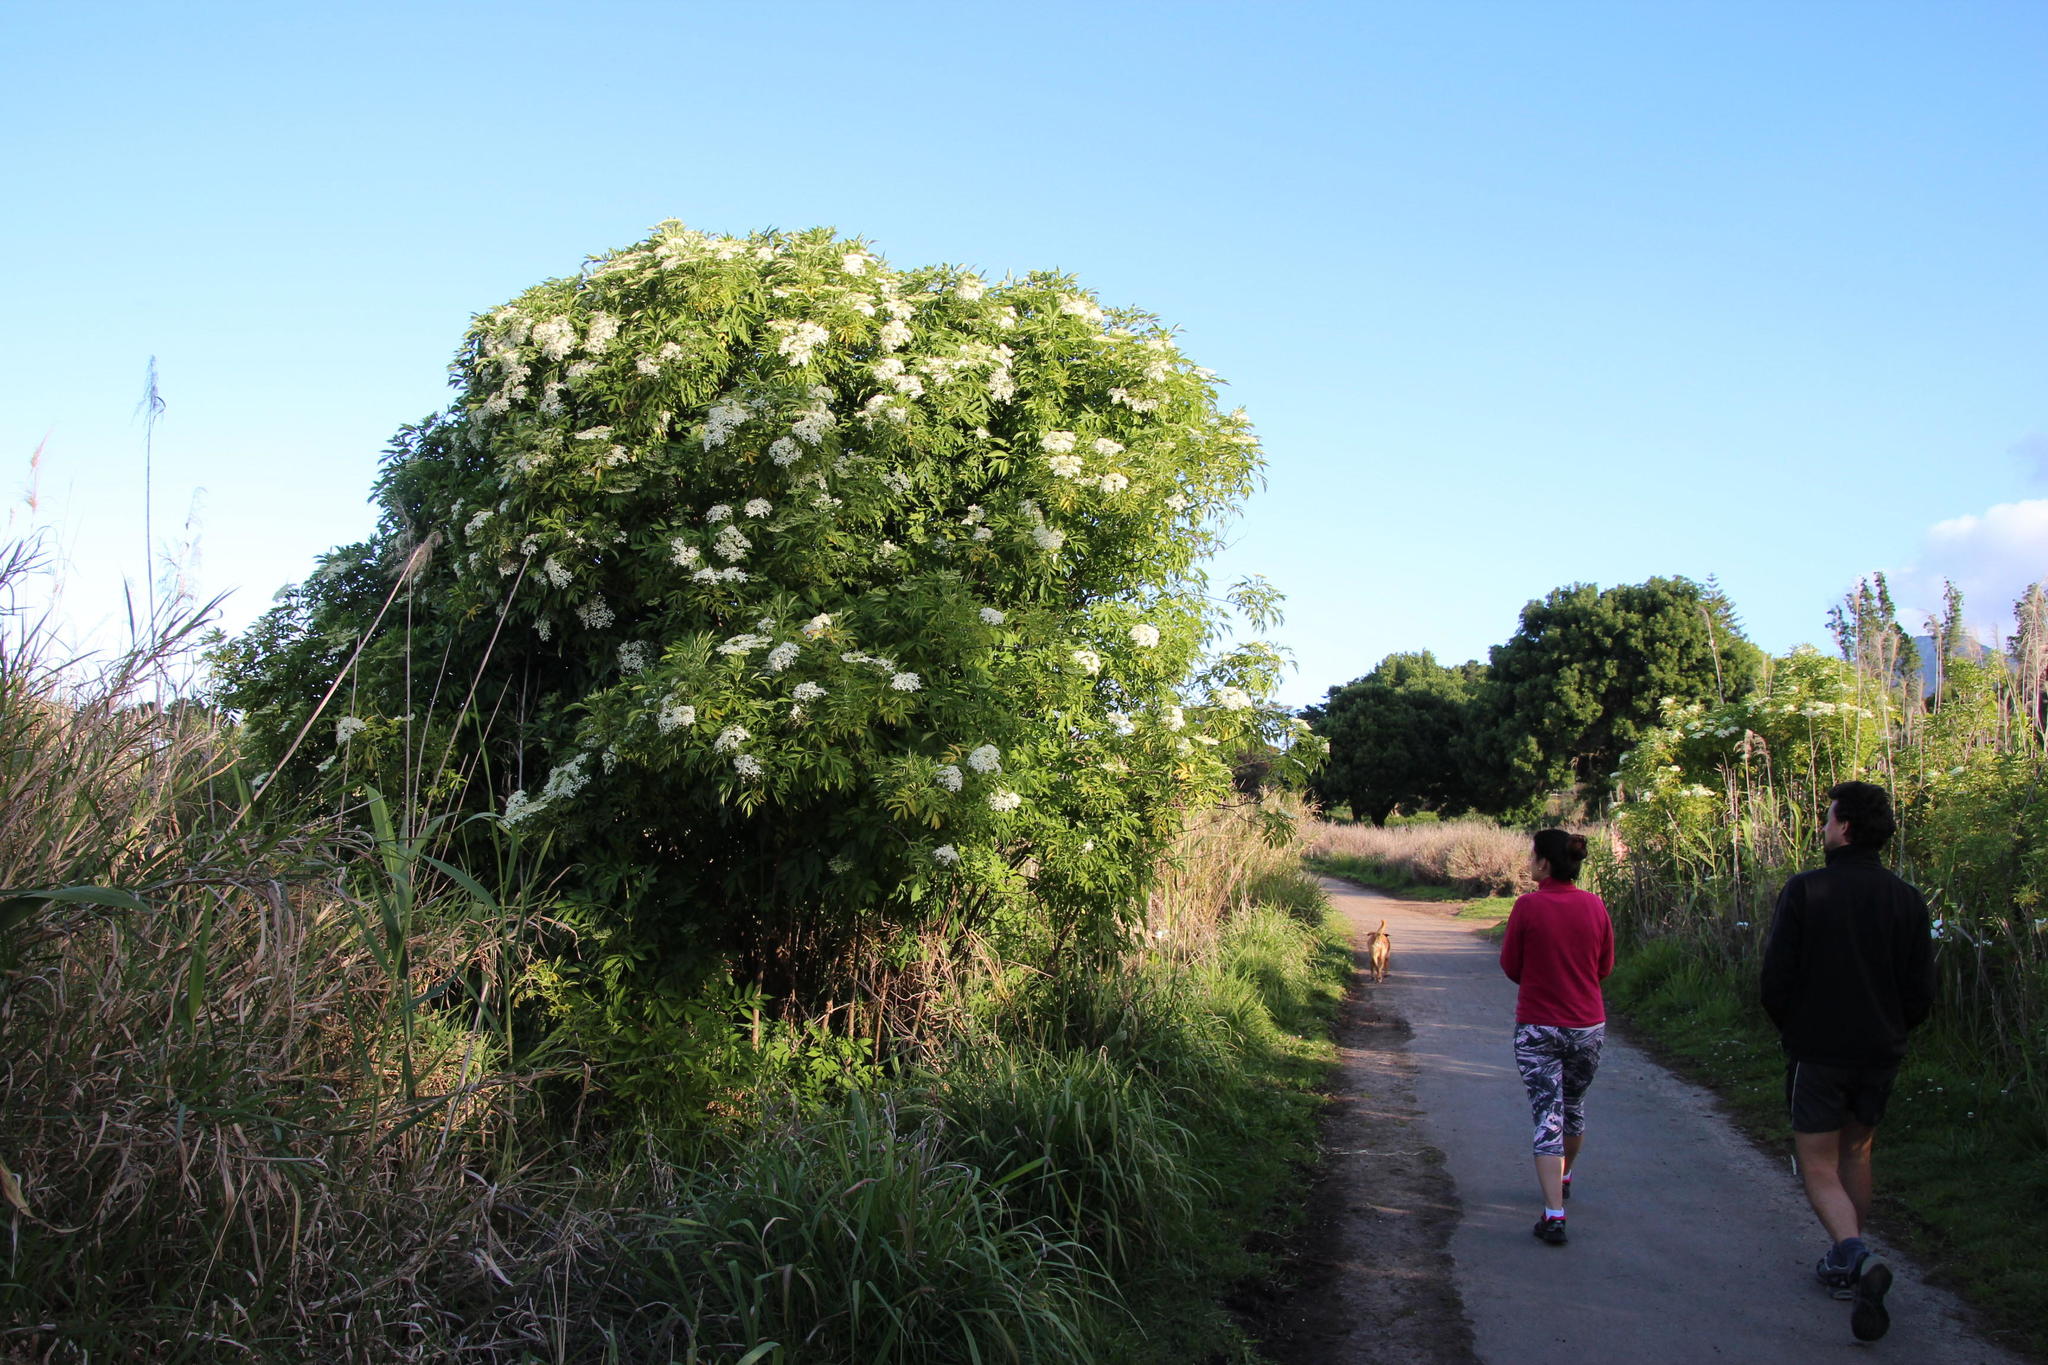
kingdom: Plantae
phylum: Tracheophyta
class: Magnoliopsida
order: Dipsacales
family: Viburnaceae
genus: Sambucus
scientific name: Sambucus nigra
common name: Elder
